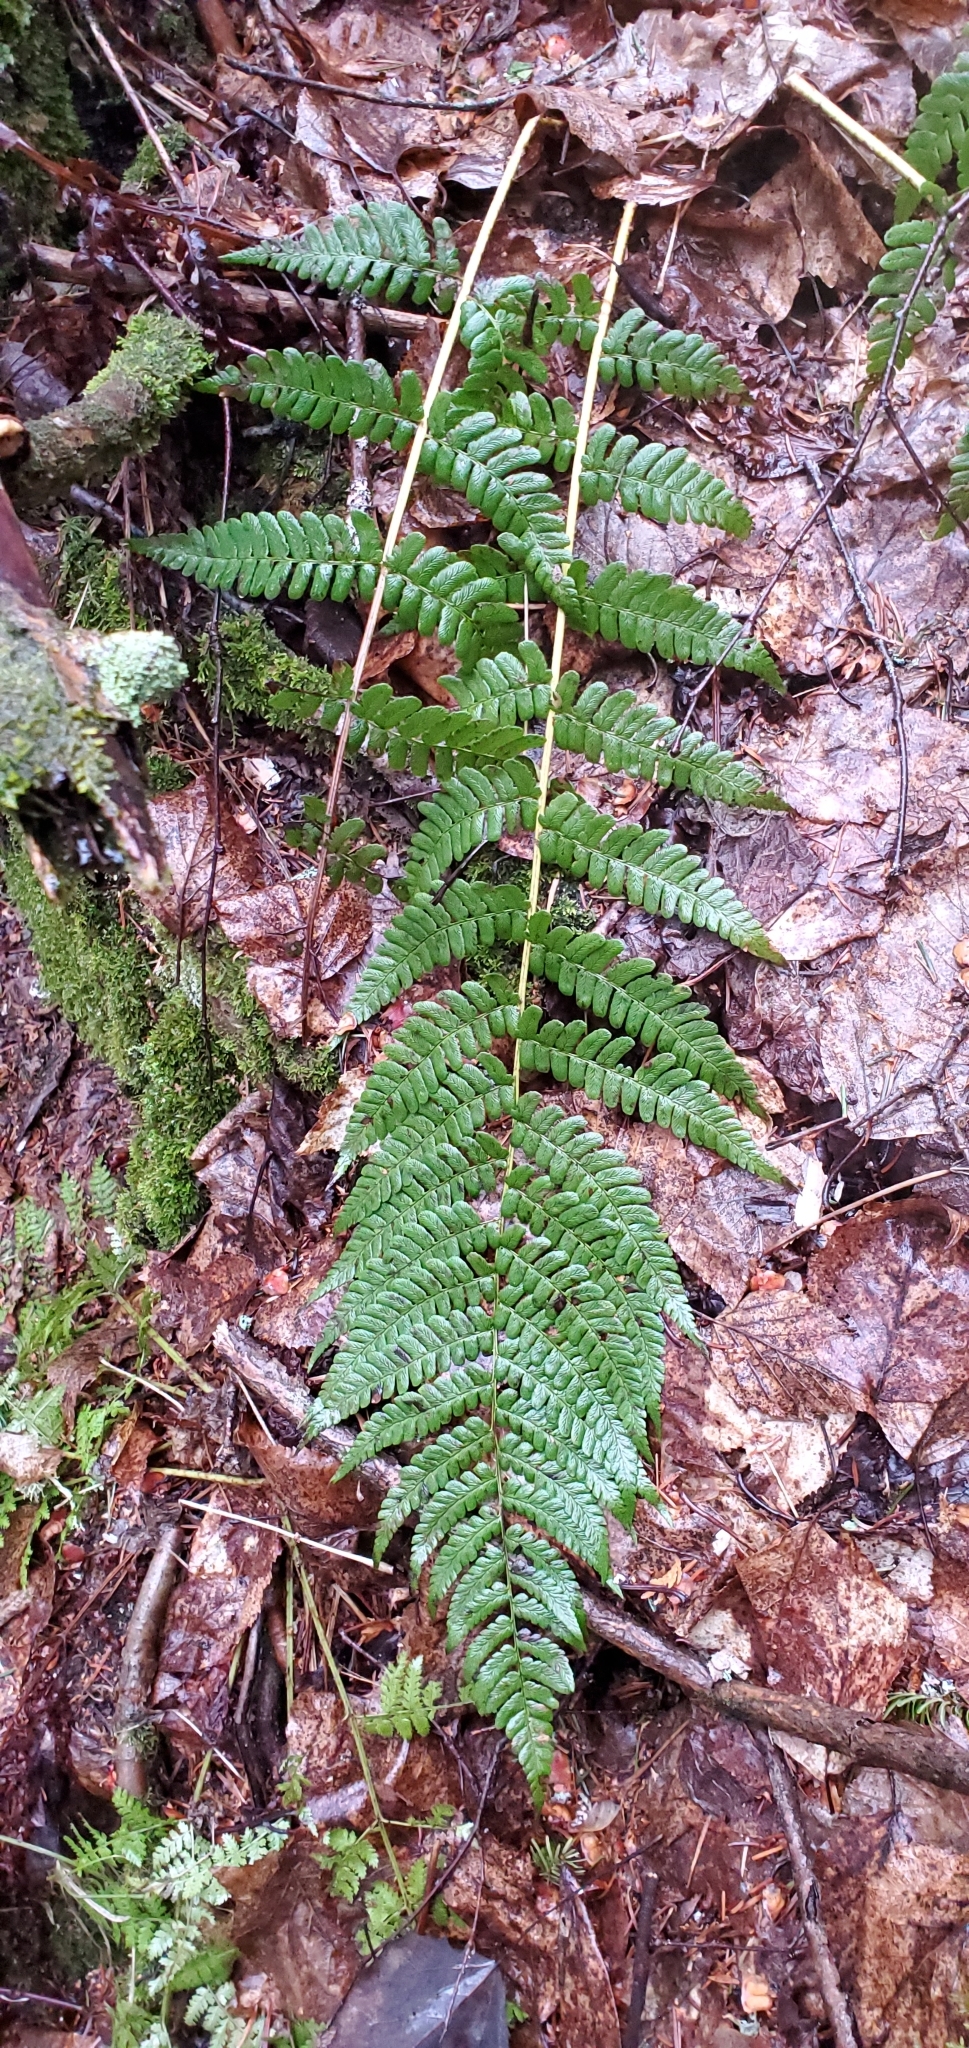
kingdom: Plantae
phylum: Tracheophyta
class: Polypodiopsida
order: Polypodiales
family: Dryopteridaceae
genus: Dryopteris
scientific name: Dryopteris marginalis
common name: Marginal wood fern
